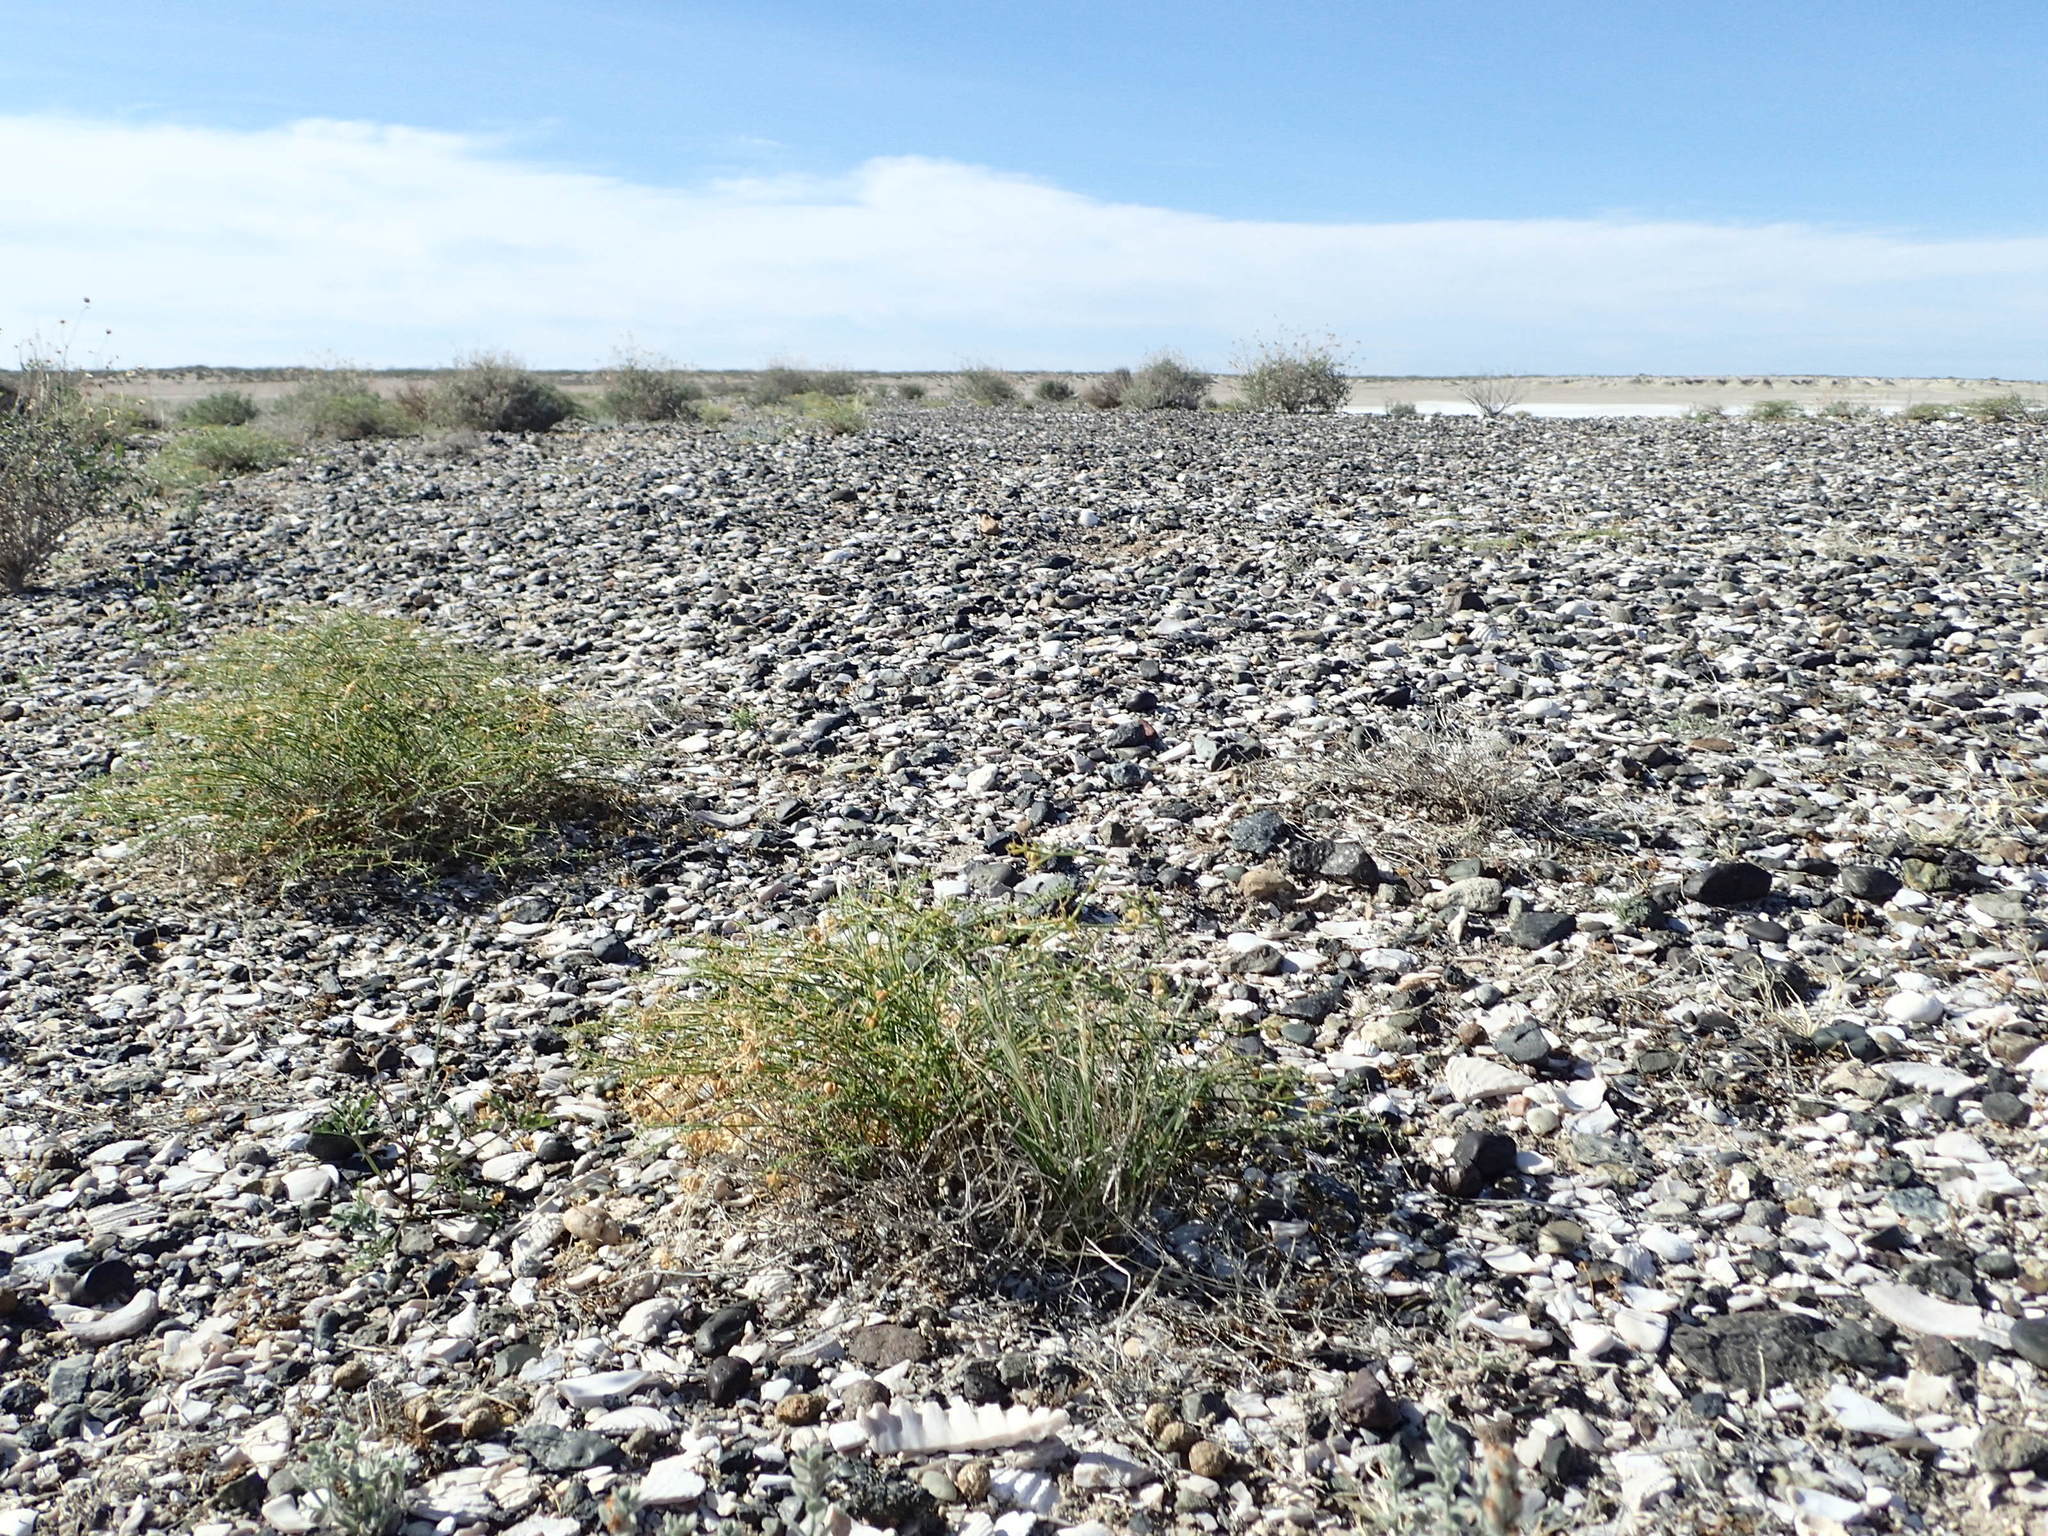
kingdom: Plantae
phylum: Tracheophyta
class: Magnoliopsida
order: Zygophyllales
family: Zygophyllaceae
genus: Fagonia
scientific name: Fagonia laevis
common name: California fagonbush
